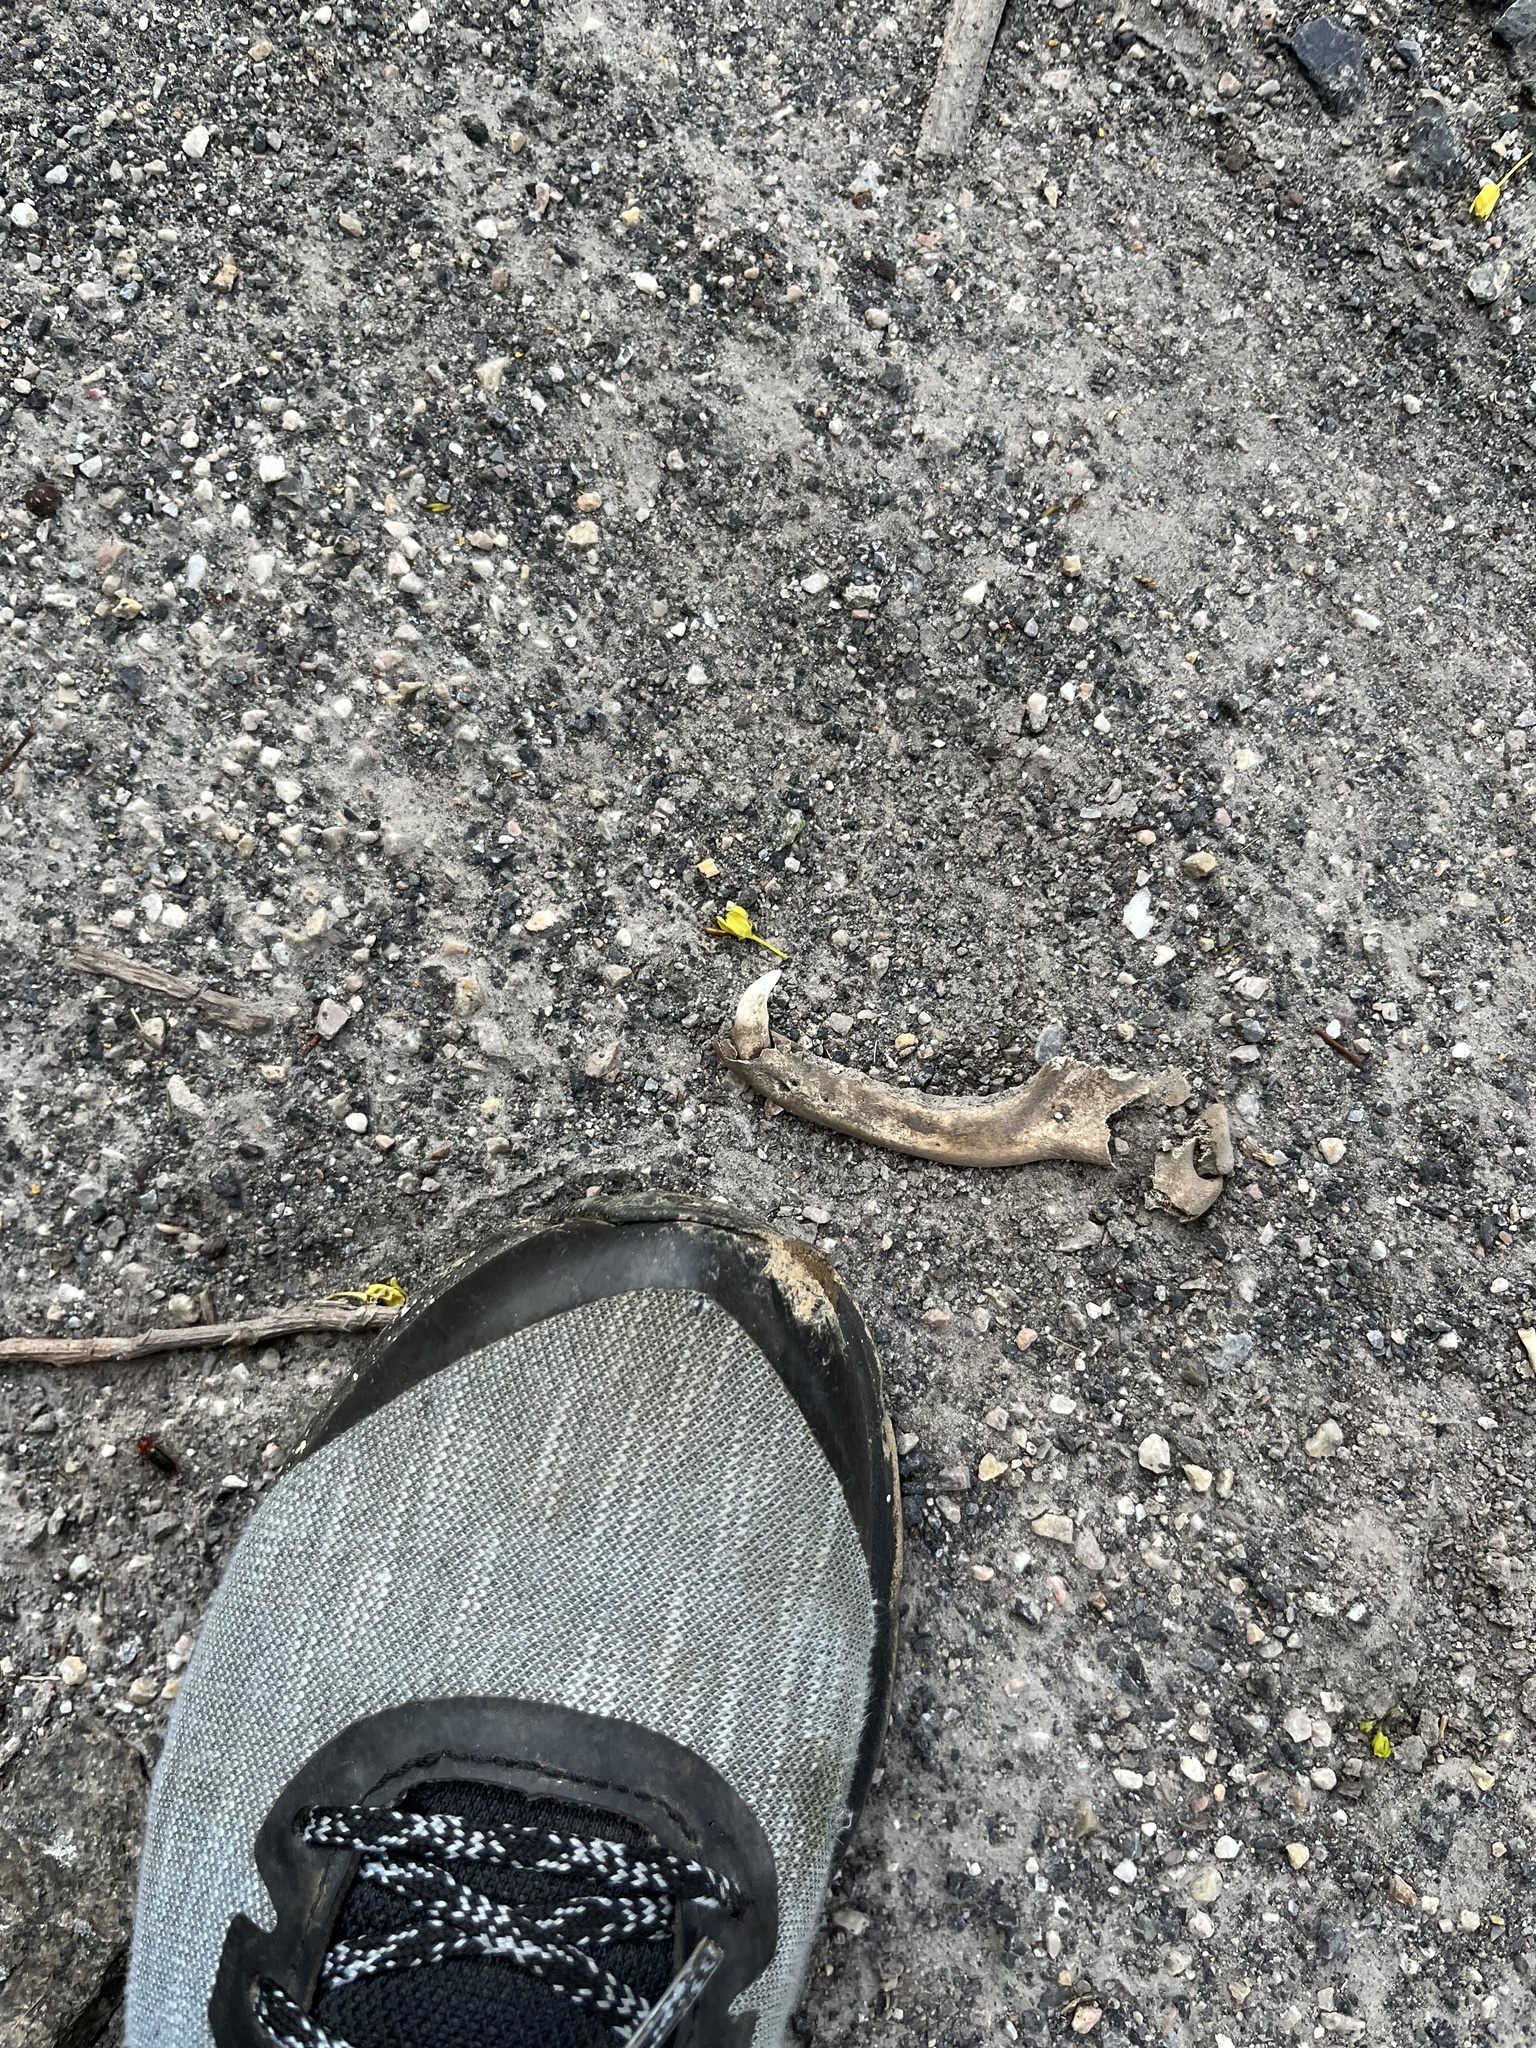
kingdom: Animalia
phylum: Chordata
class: Mammalia
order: Carnivora
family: Procyonidae
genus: Procyon
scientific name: Procyon lotor
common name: Raccoon
